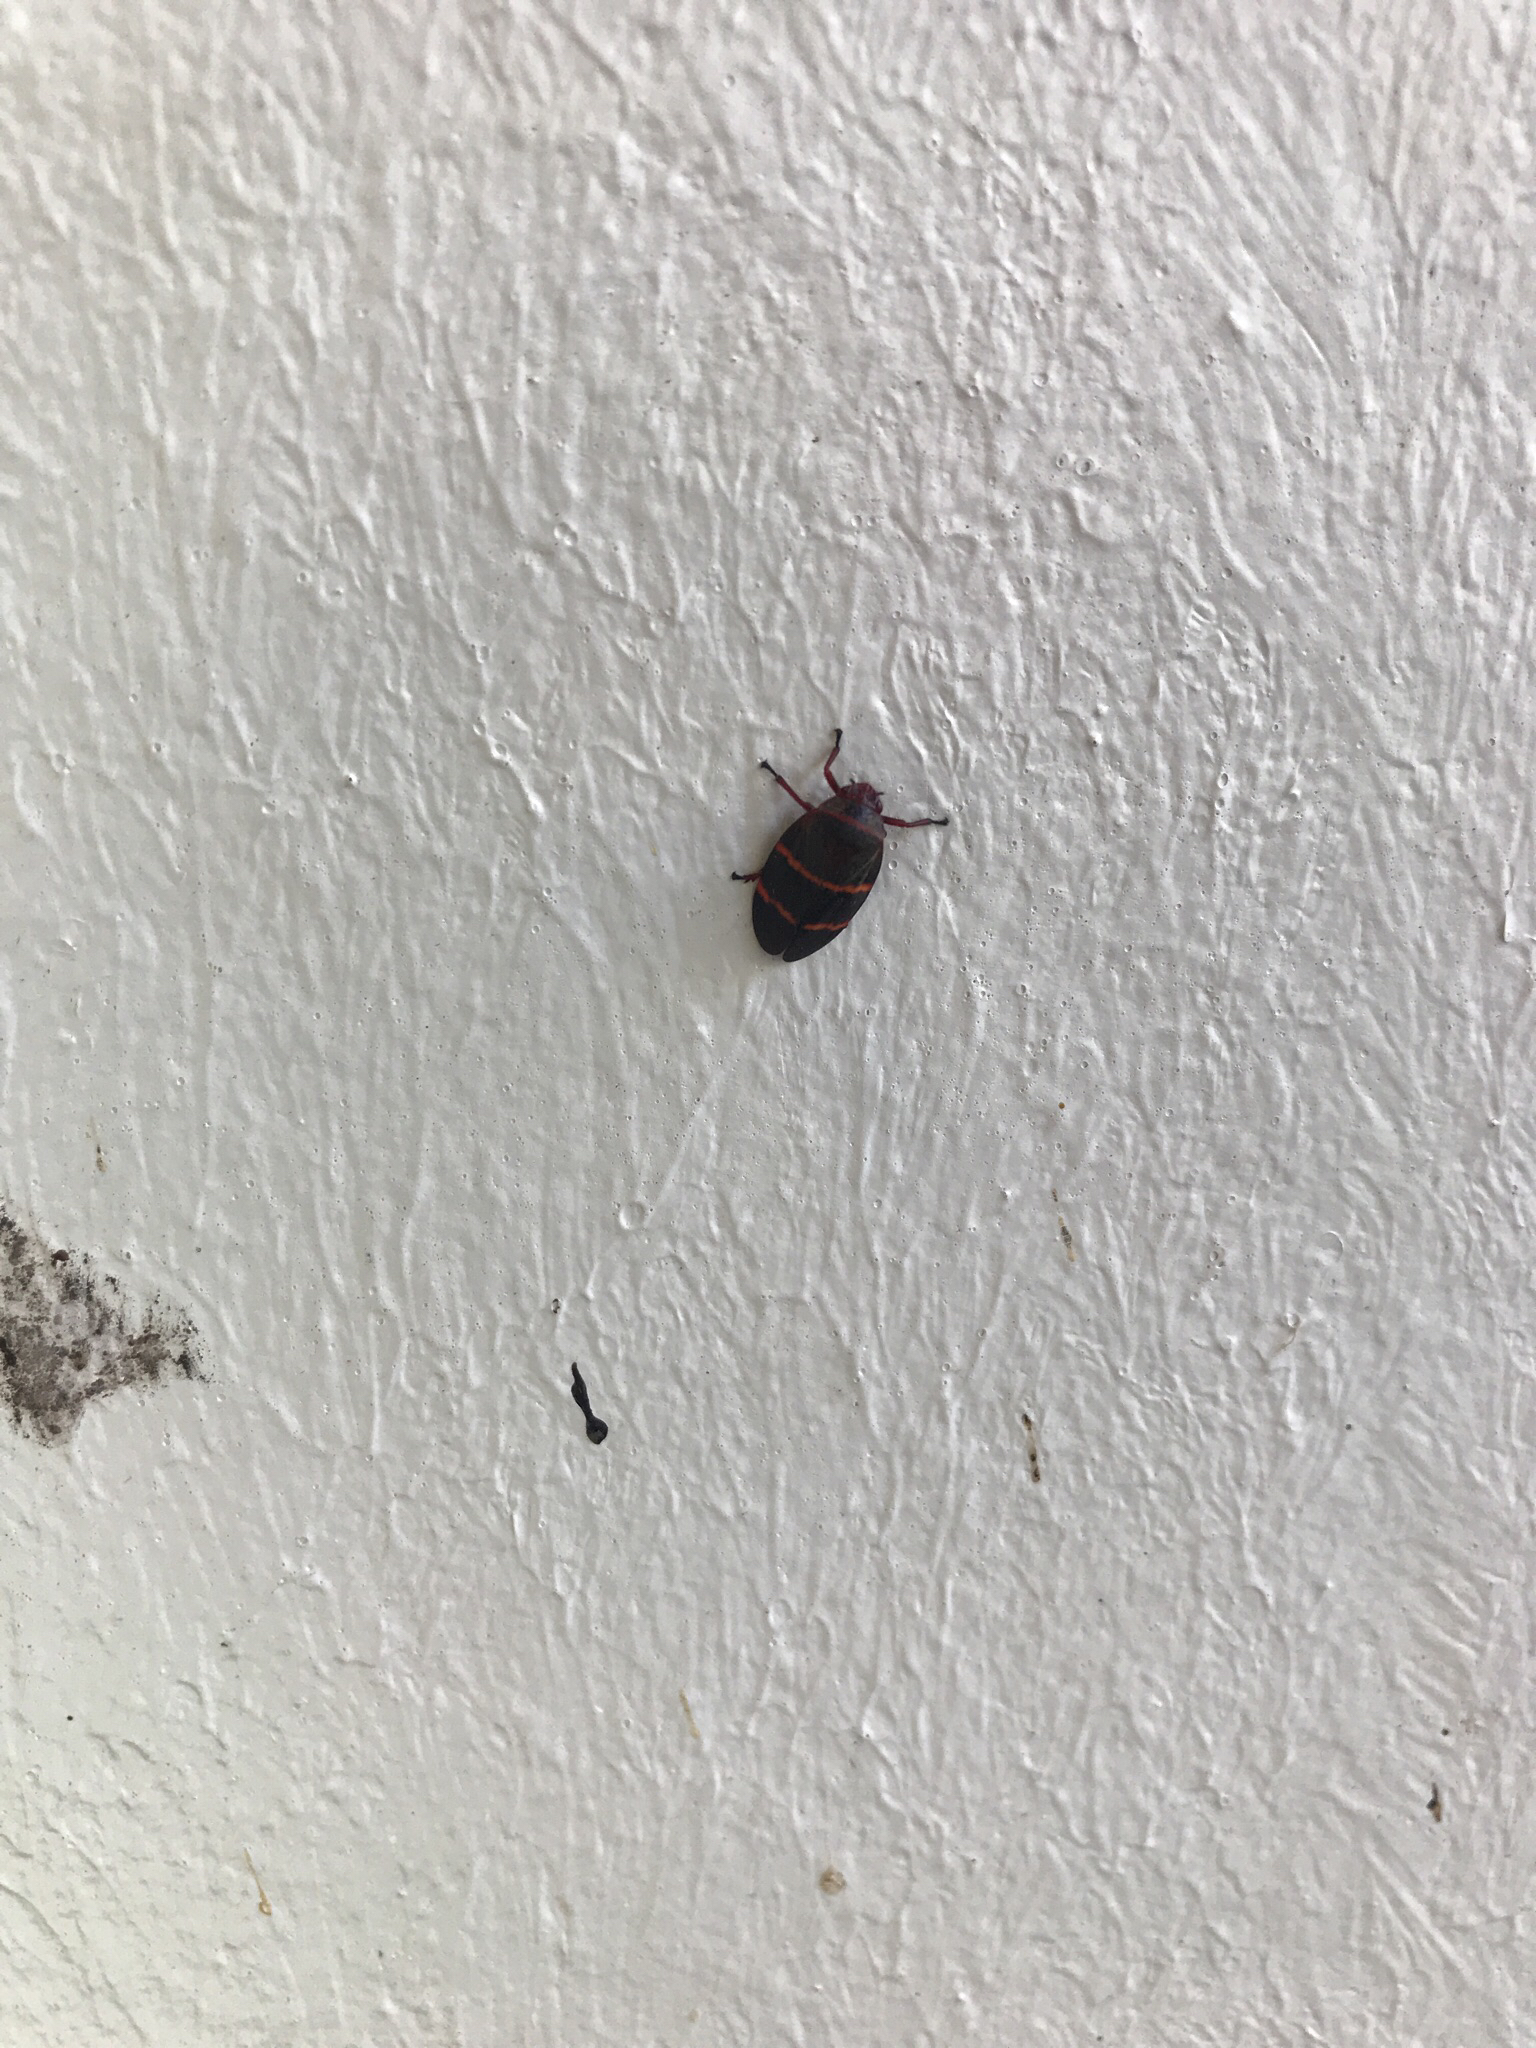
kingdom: Animalia
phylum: Arthropoda
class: Insecta
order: Hemiptera
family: Cercopidae
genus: Prosapia
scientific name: Prosapia bicincta
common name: Twolined spittlebug
